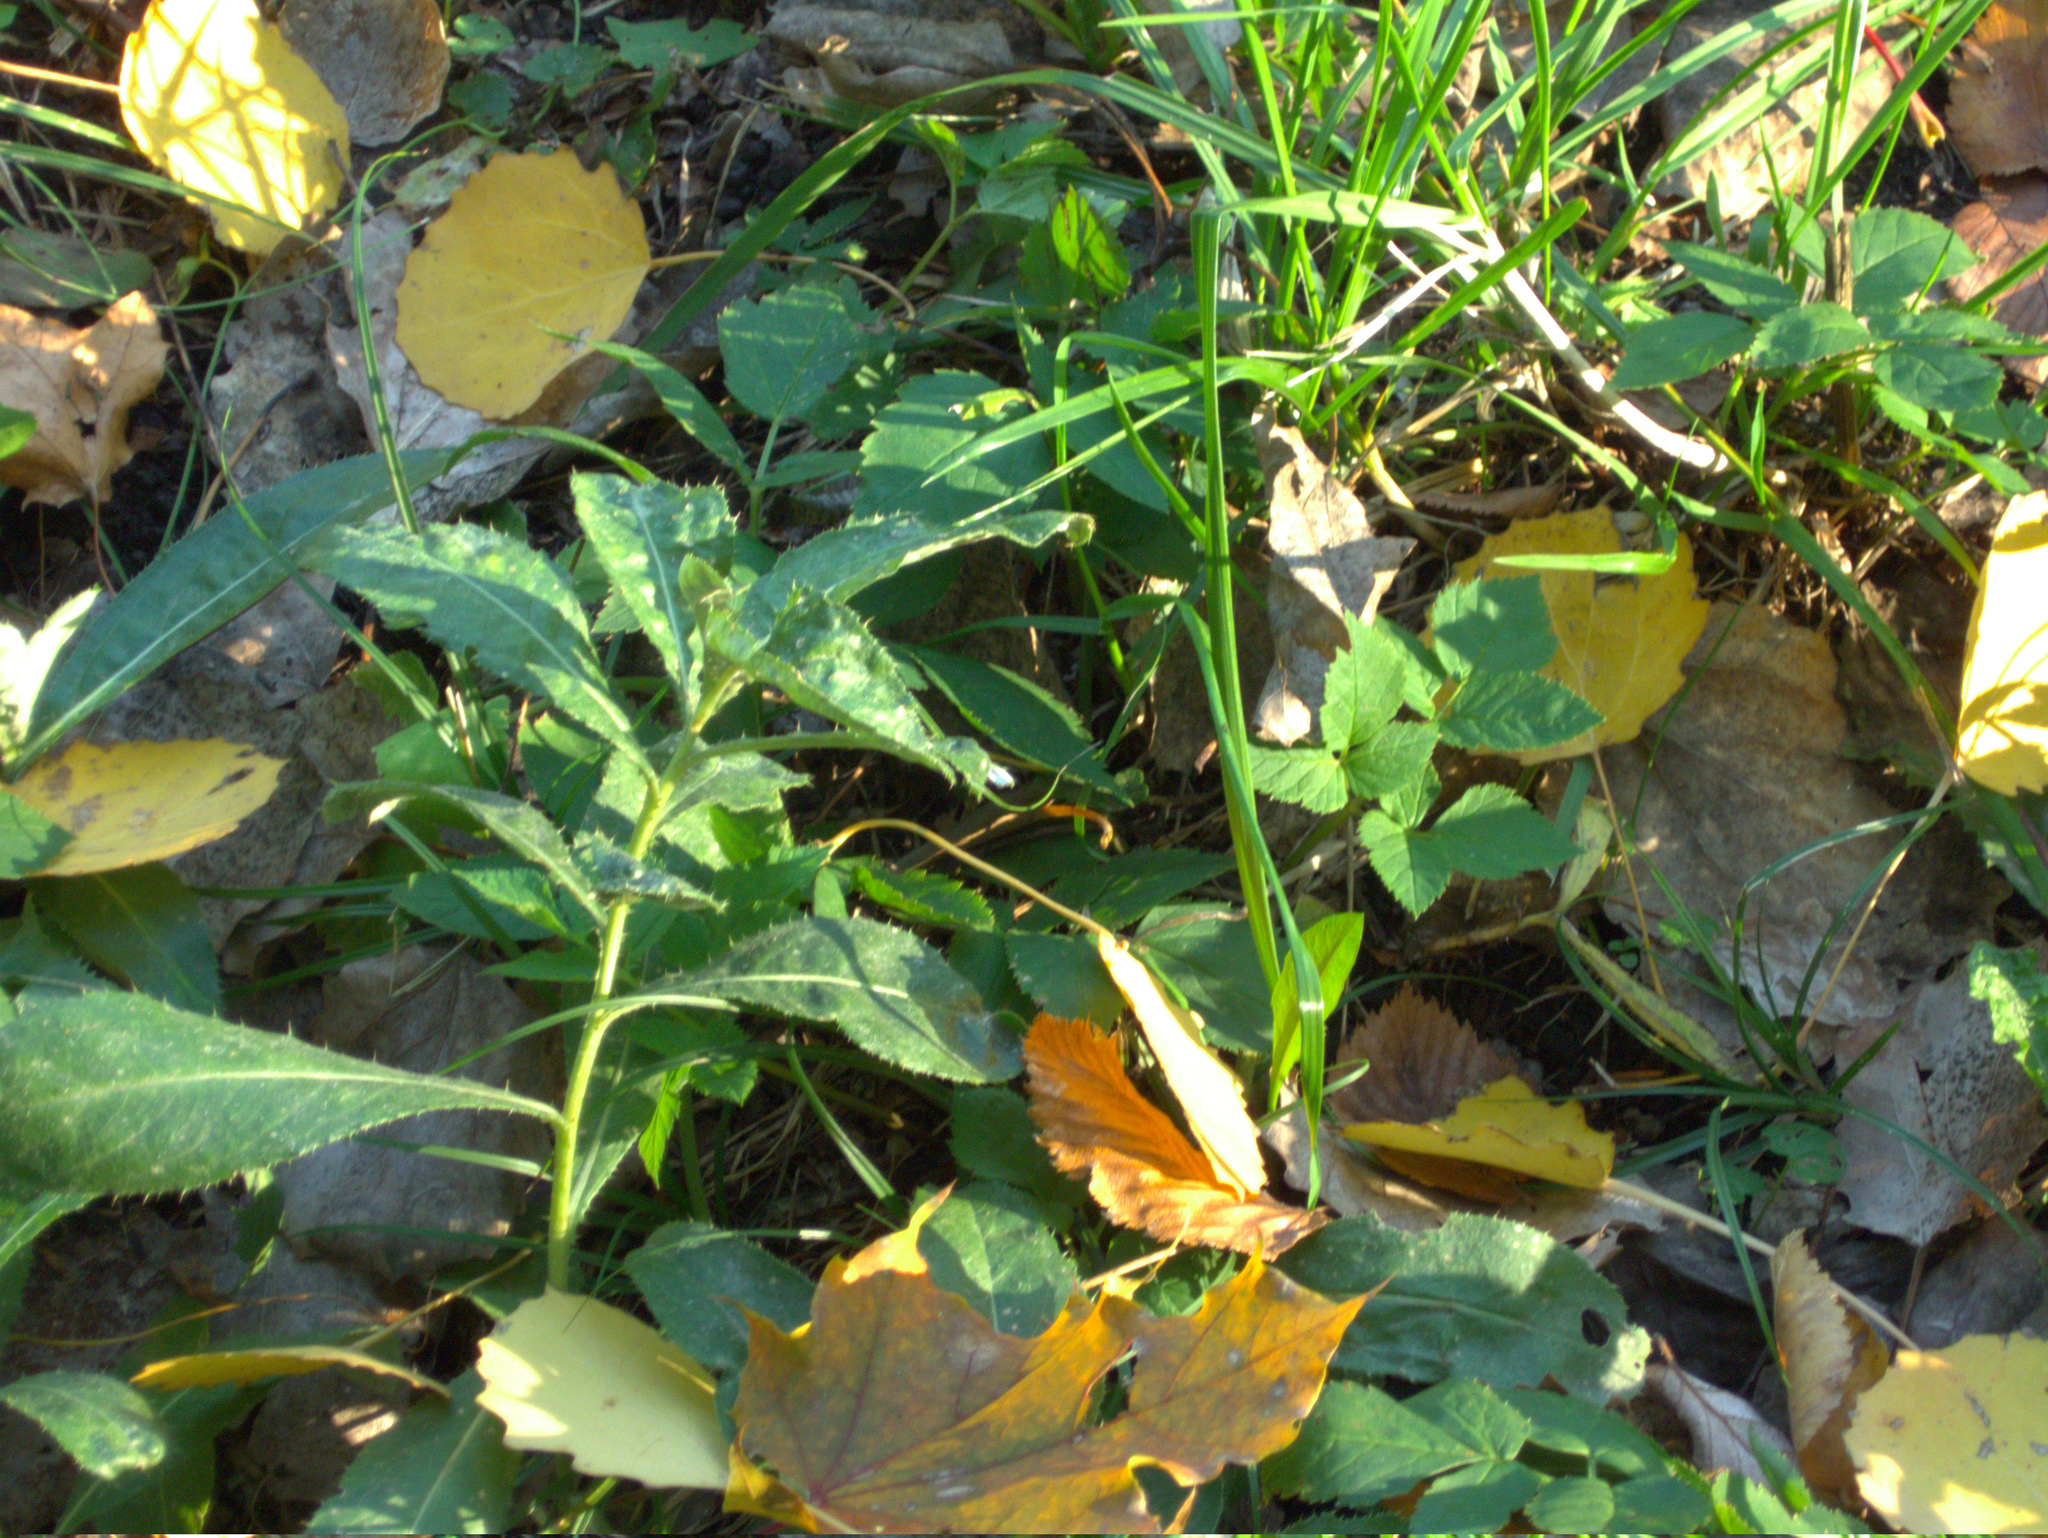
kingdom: Plantae
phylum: Tracheophyta
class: Magnoliopsida
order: Asterales
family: Asteraceae
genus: Cirsium
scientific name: Cirsium arvense
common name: Creeping thistle
